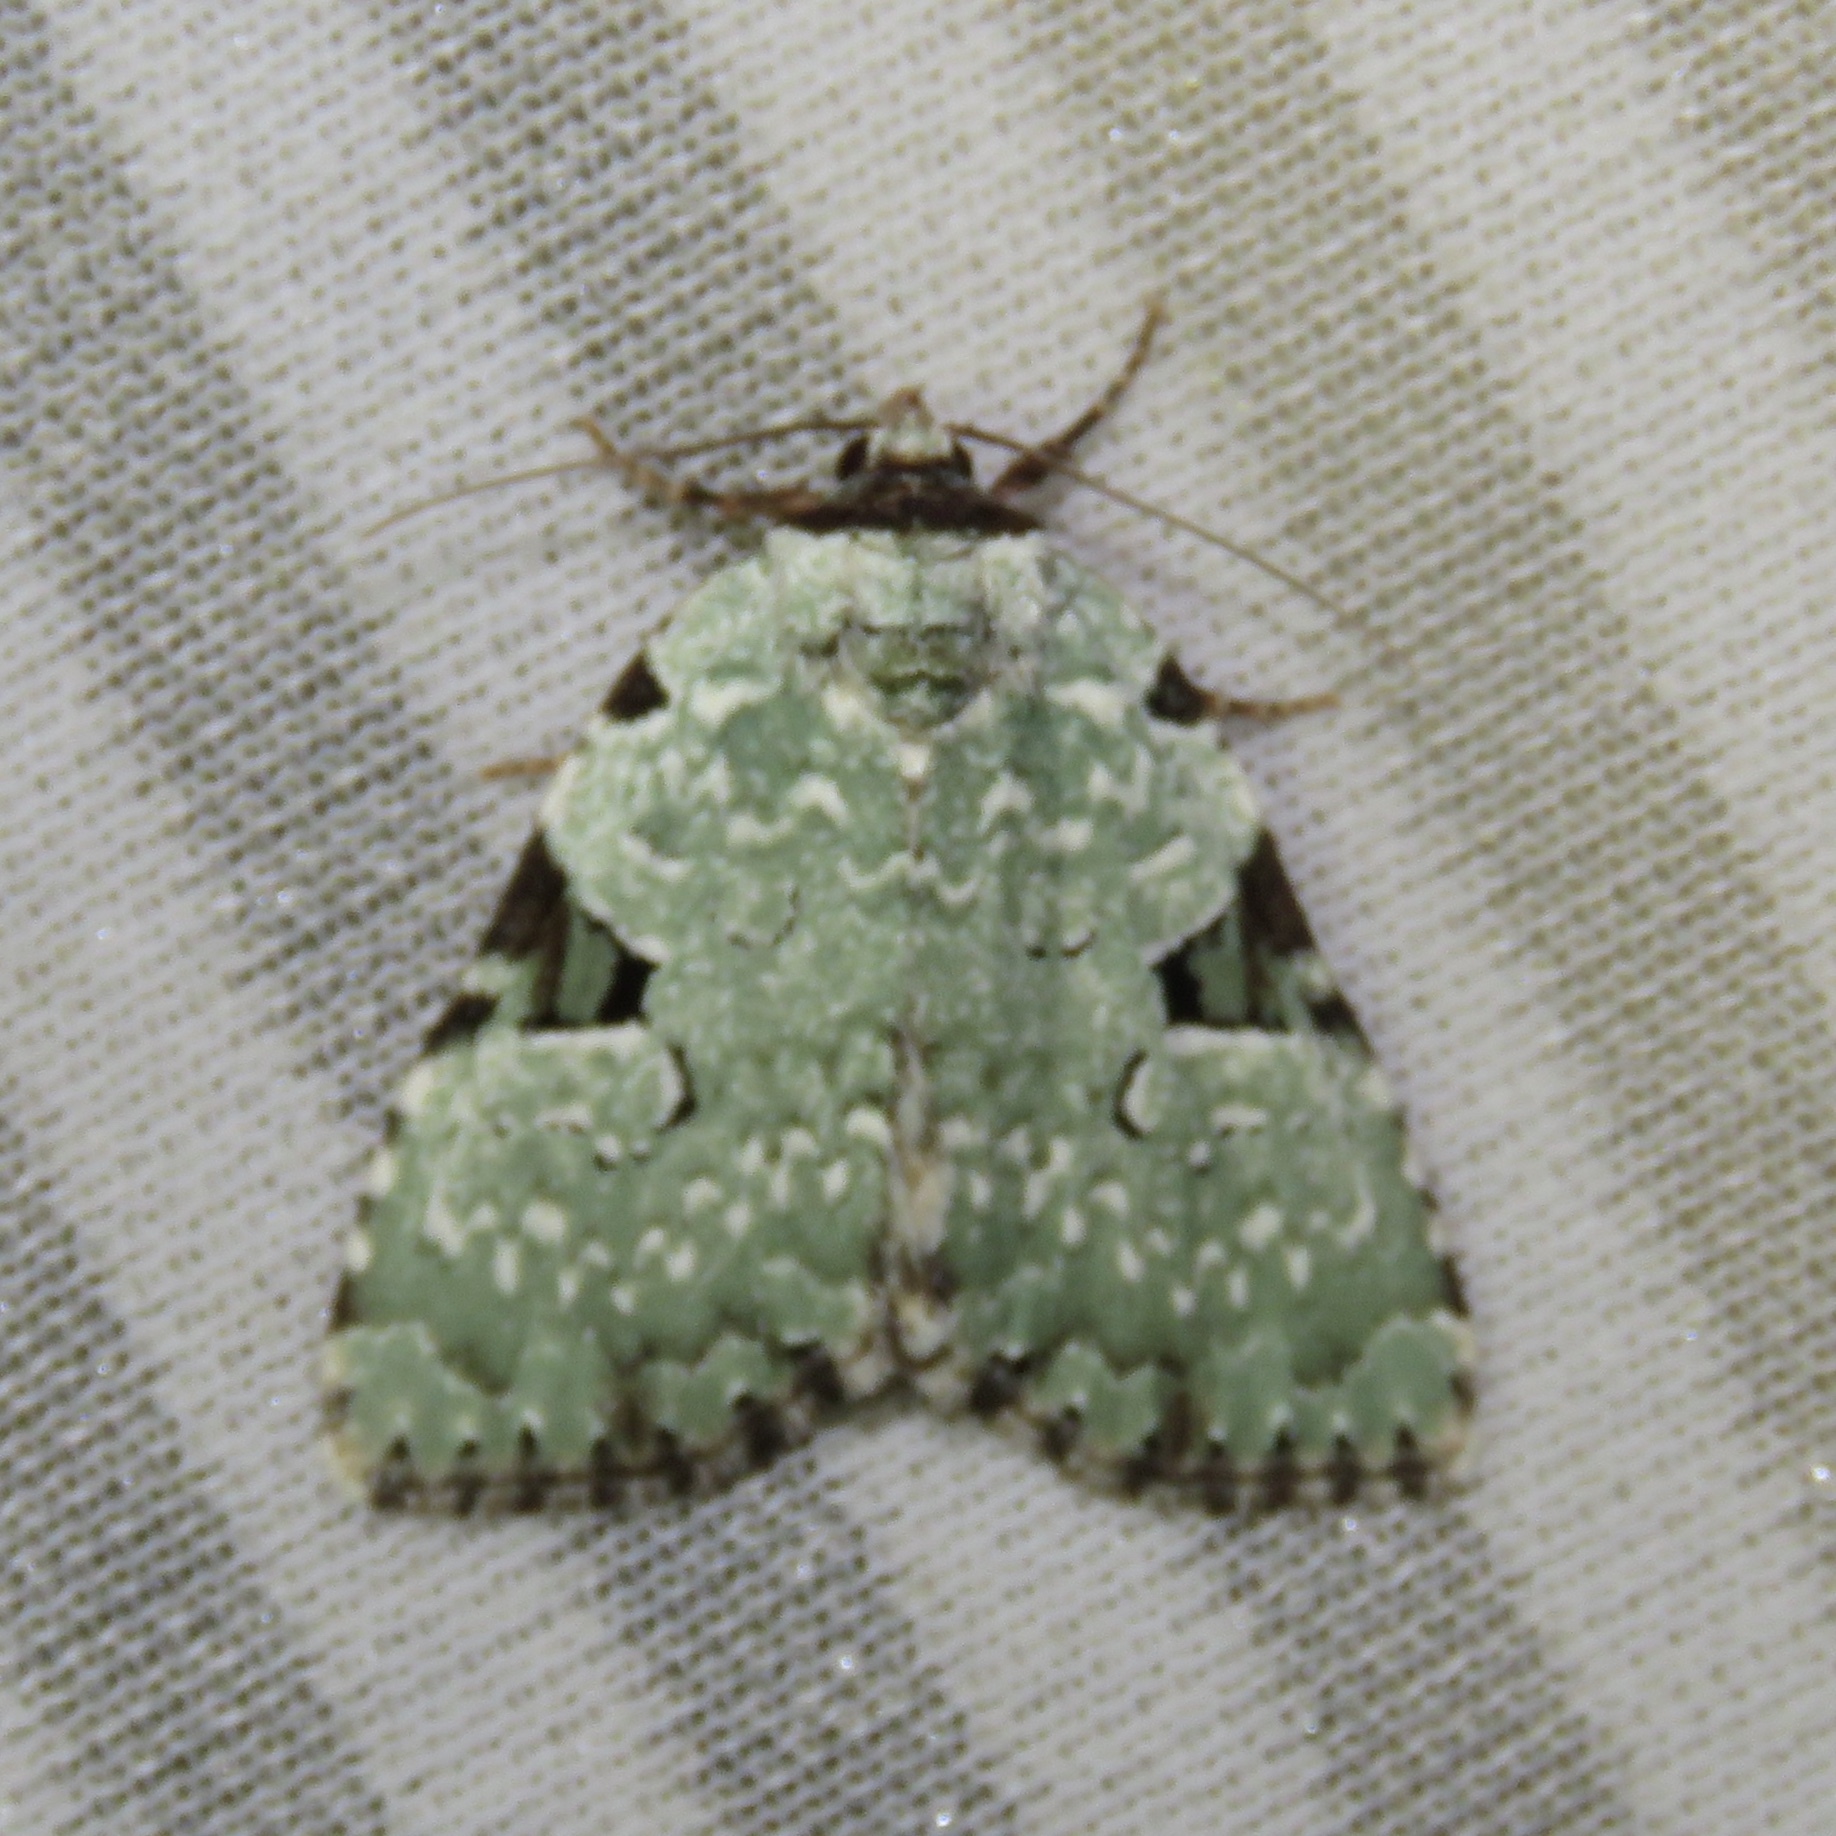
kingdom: Animalia
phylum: Arthropoda
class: Insecta
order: Lepidoptera
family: Noctuidae
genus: Leuconycta
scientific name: Leuconycta diphteroides
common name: Green leuconycta moth
